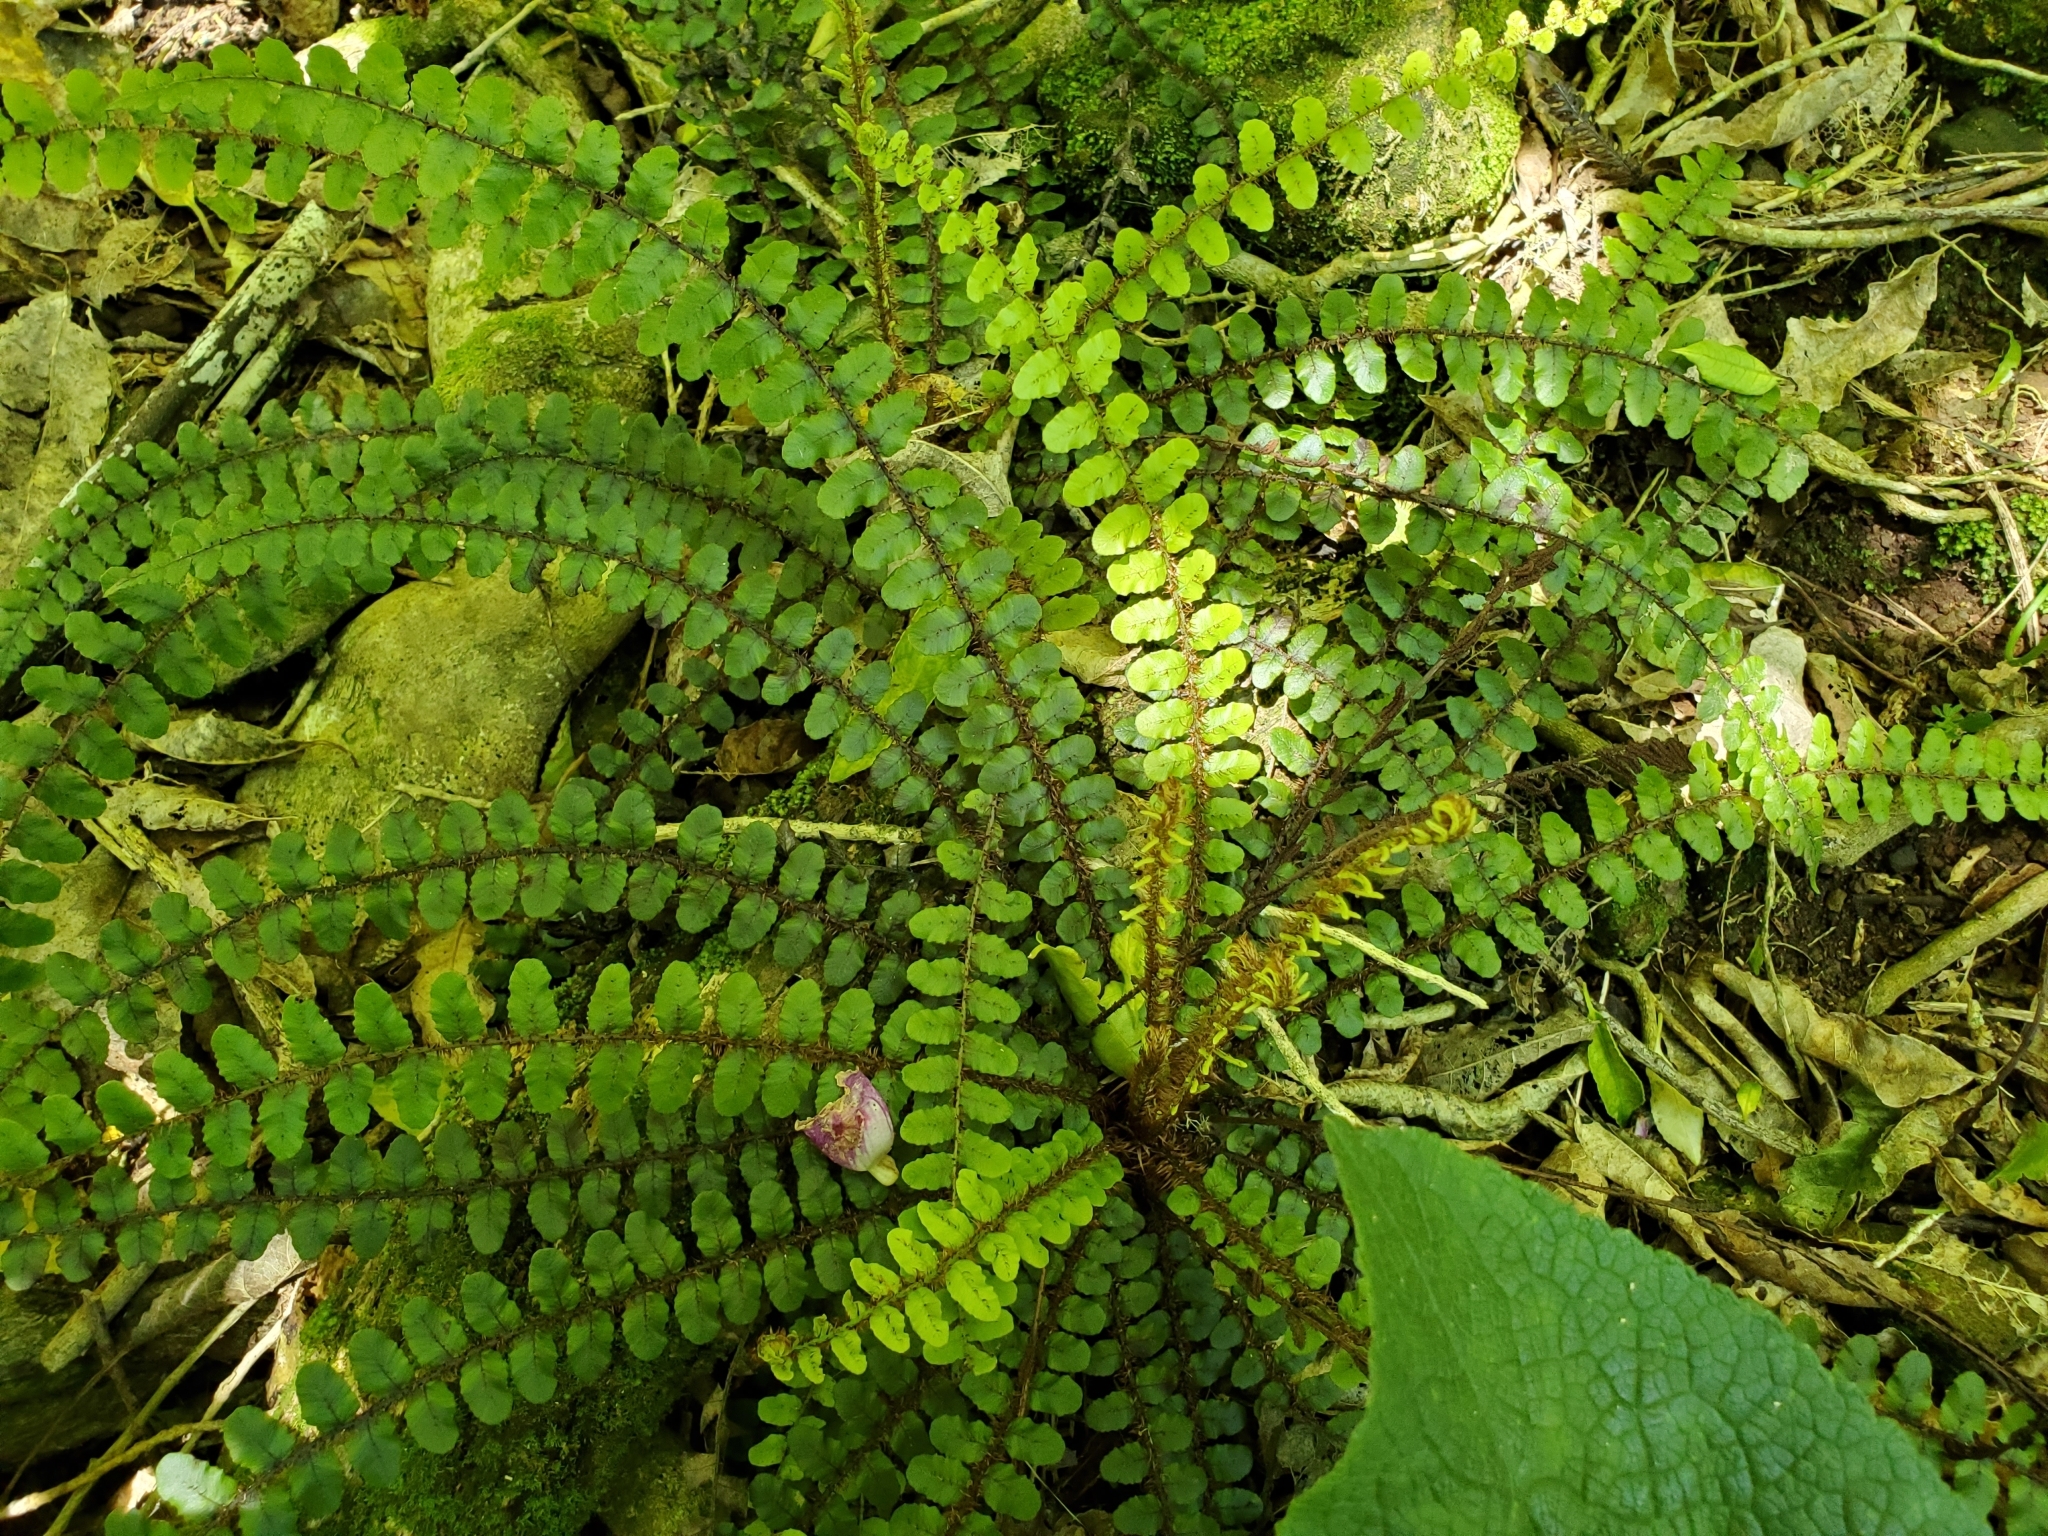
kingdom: Plantae
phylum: Tracheophyta
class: Polypodiopsida
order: Polypodiales
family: Blechnaceae
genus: Cranfillia
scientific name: Cranfillia fluviatilis
